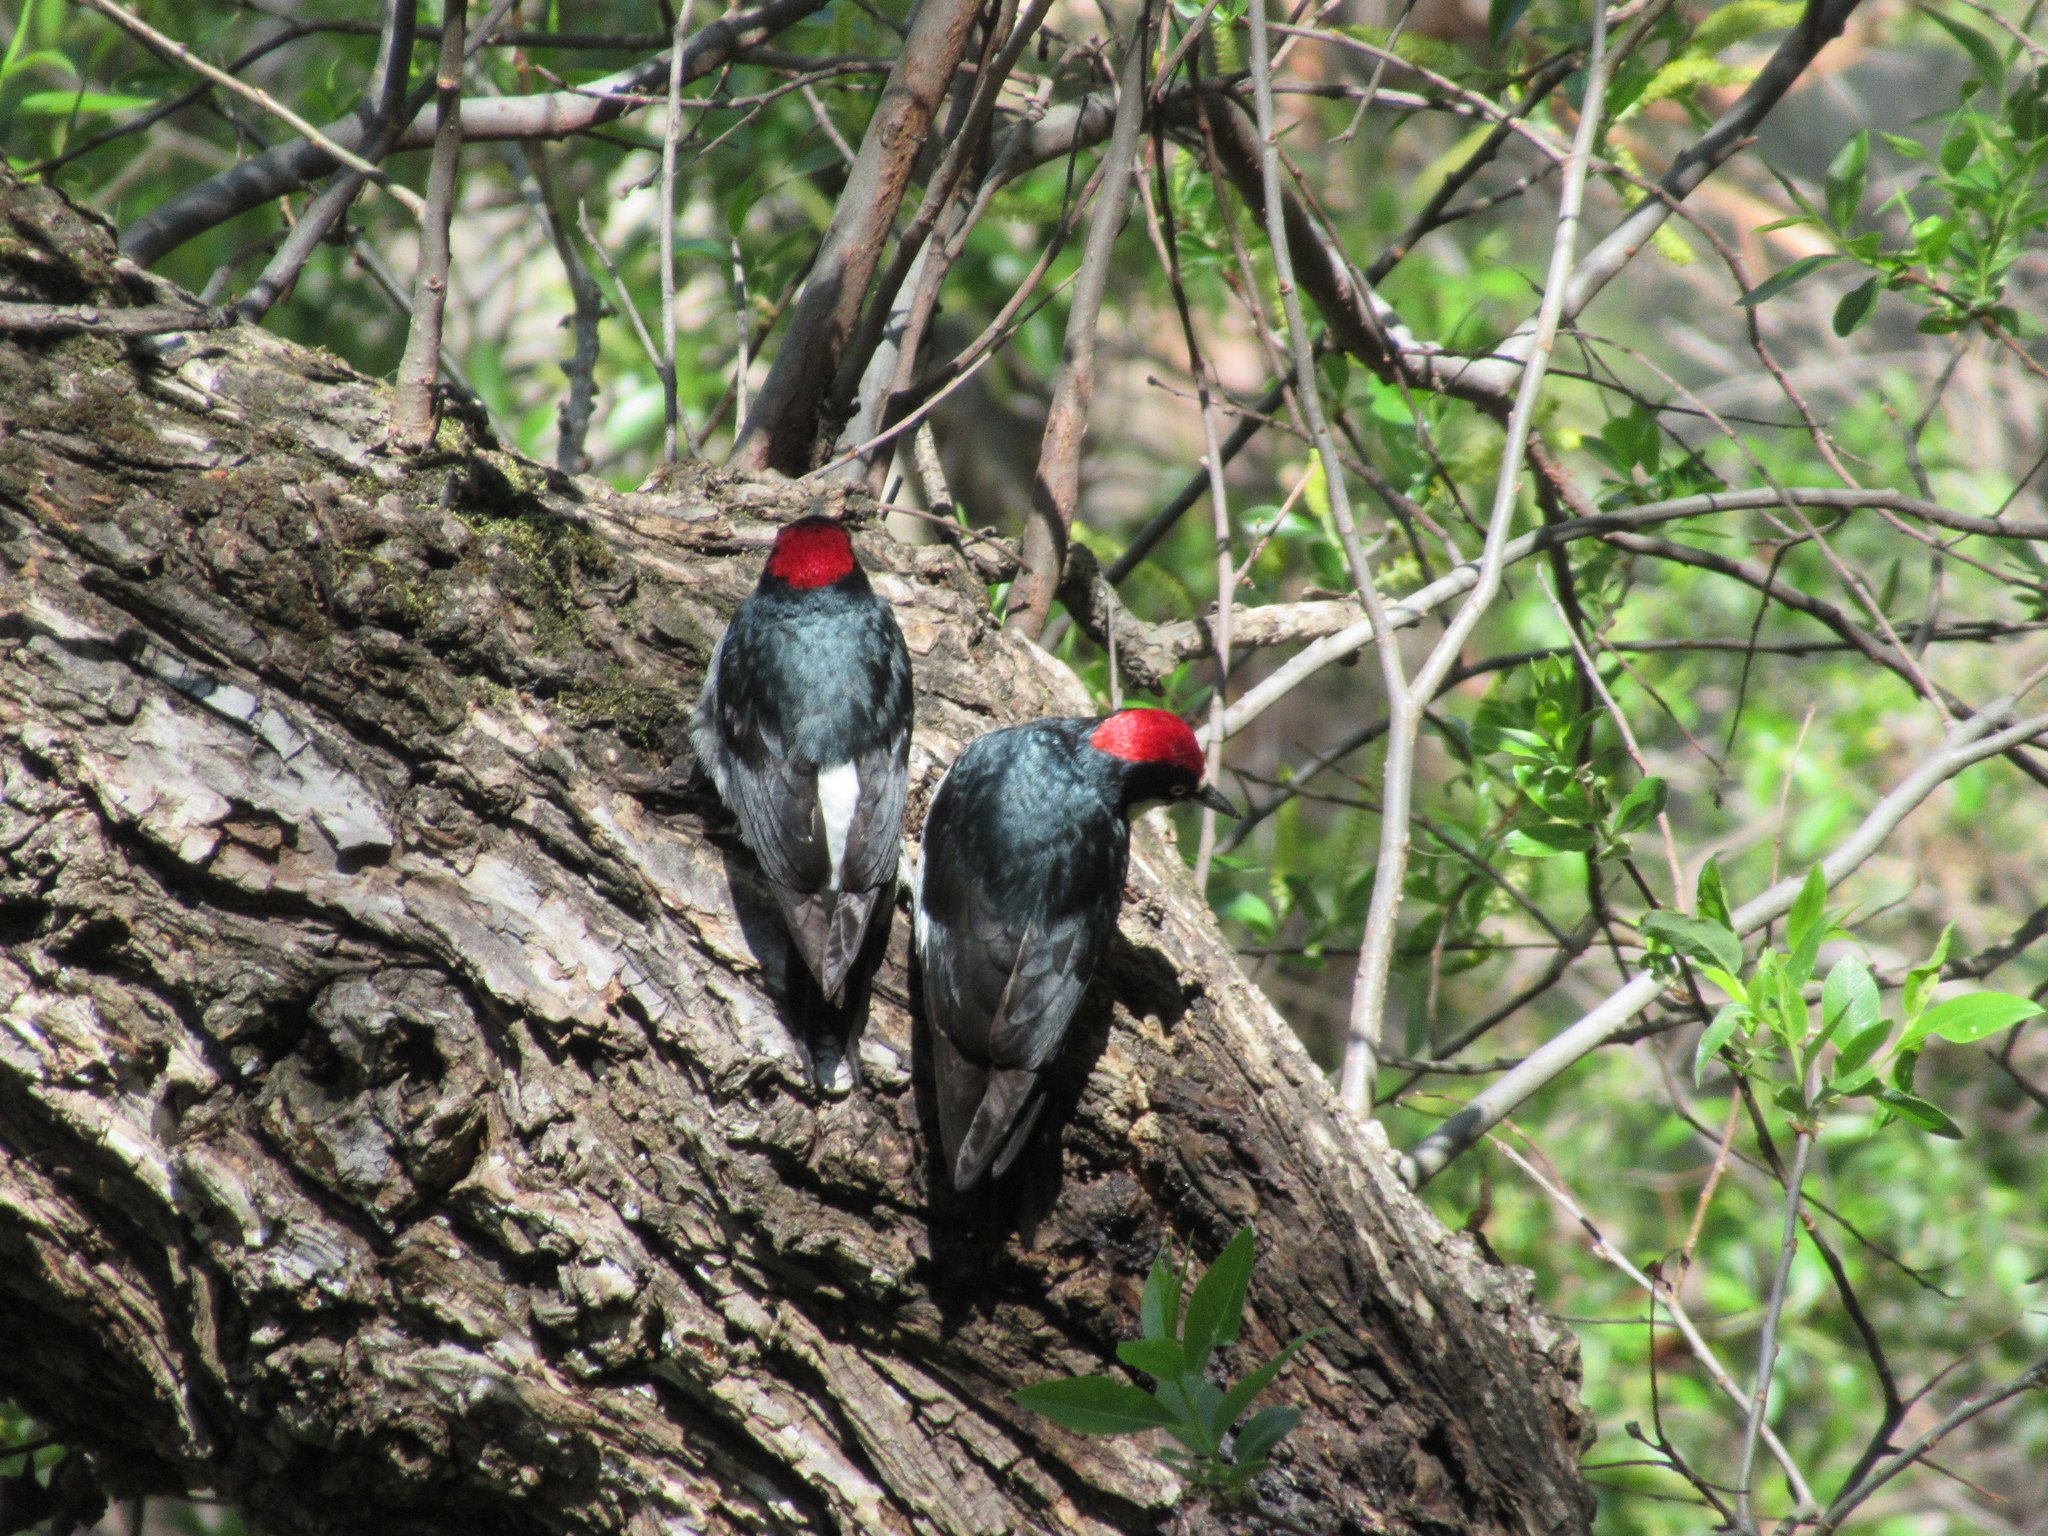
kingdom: Animalia
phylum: Chordata
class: Aves
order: Piciformes
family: Picidae
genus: Melanerpes
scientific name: Melanerpes formicivorus
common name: Acorn woodpecker
